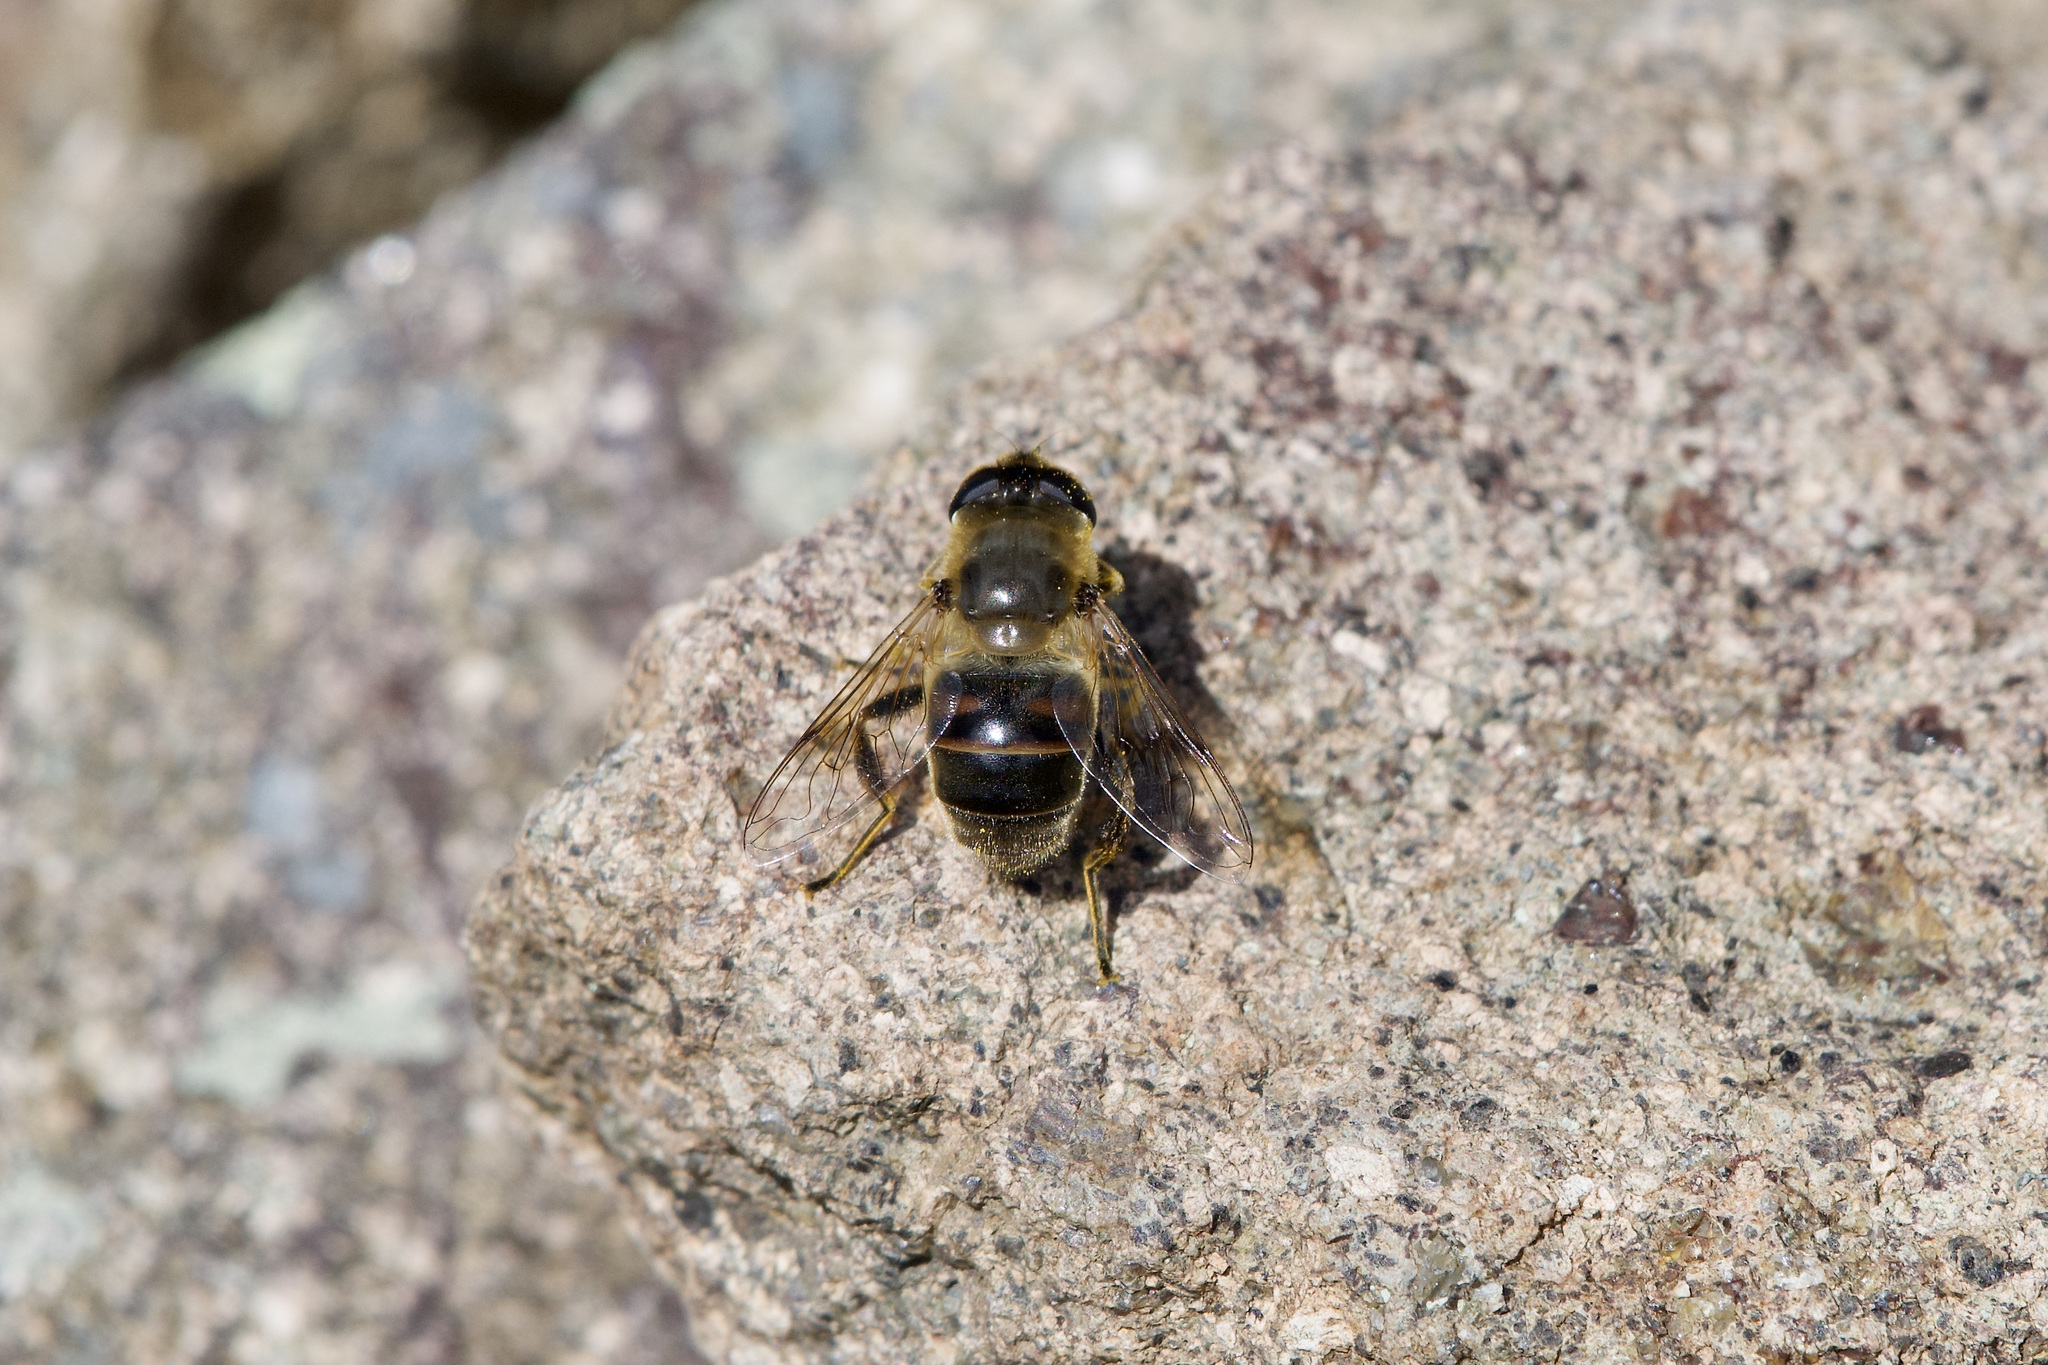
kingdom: Animalia
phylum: Arthropoda
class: Insecta
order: Diptera
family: Syrphidae
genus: Eristalis
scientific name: Eristalis tenax
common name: Drone fly
